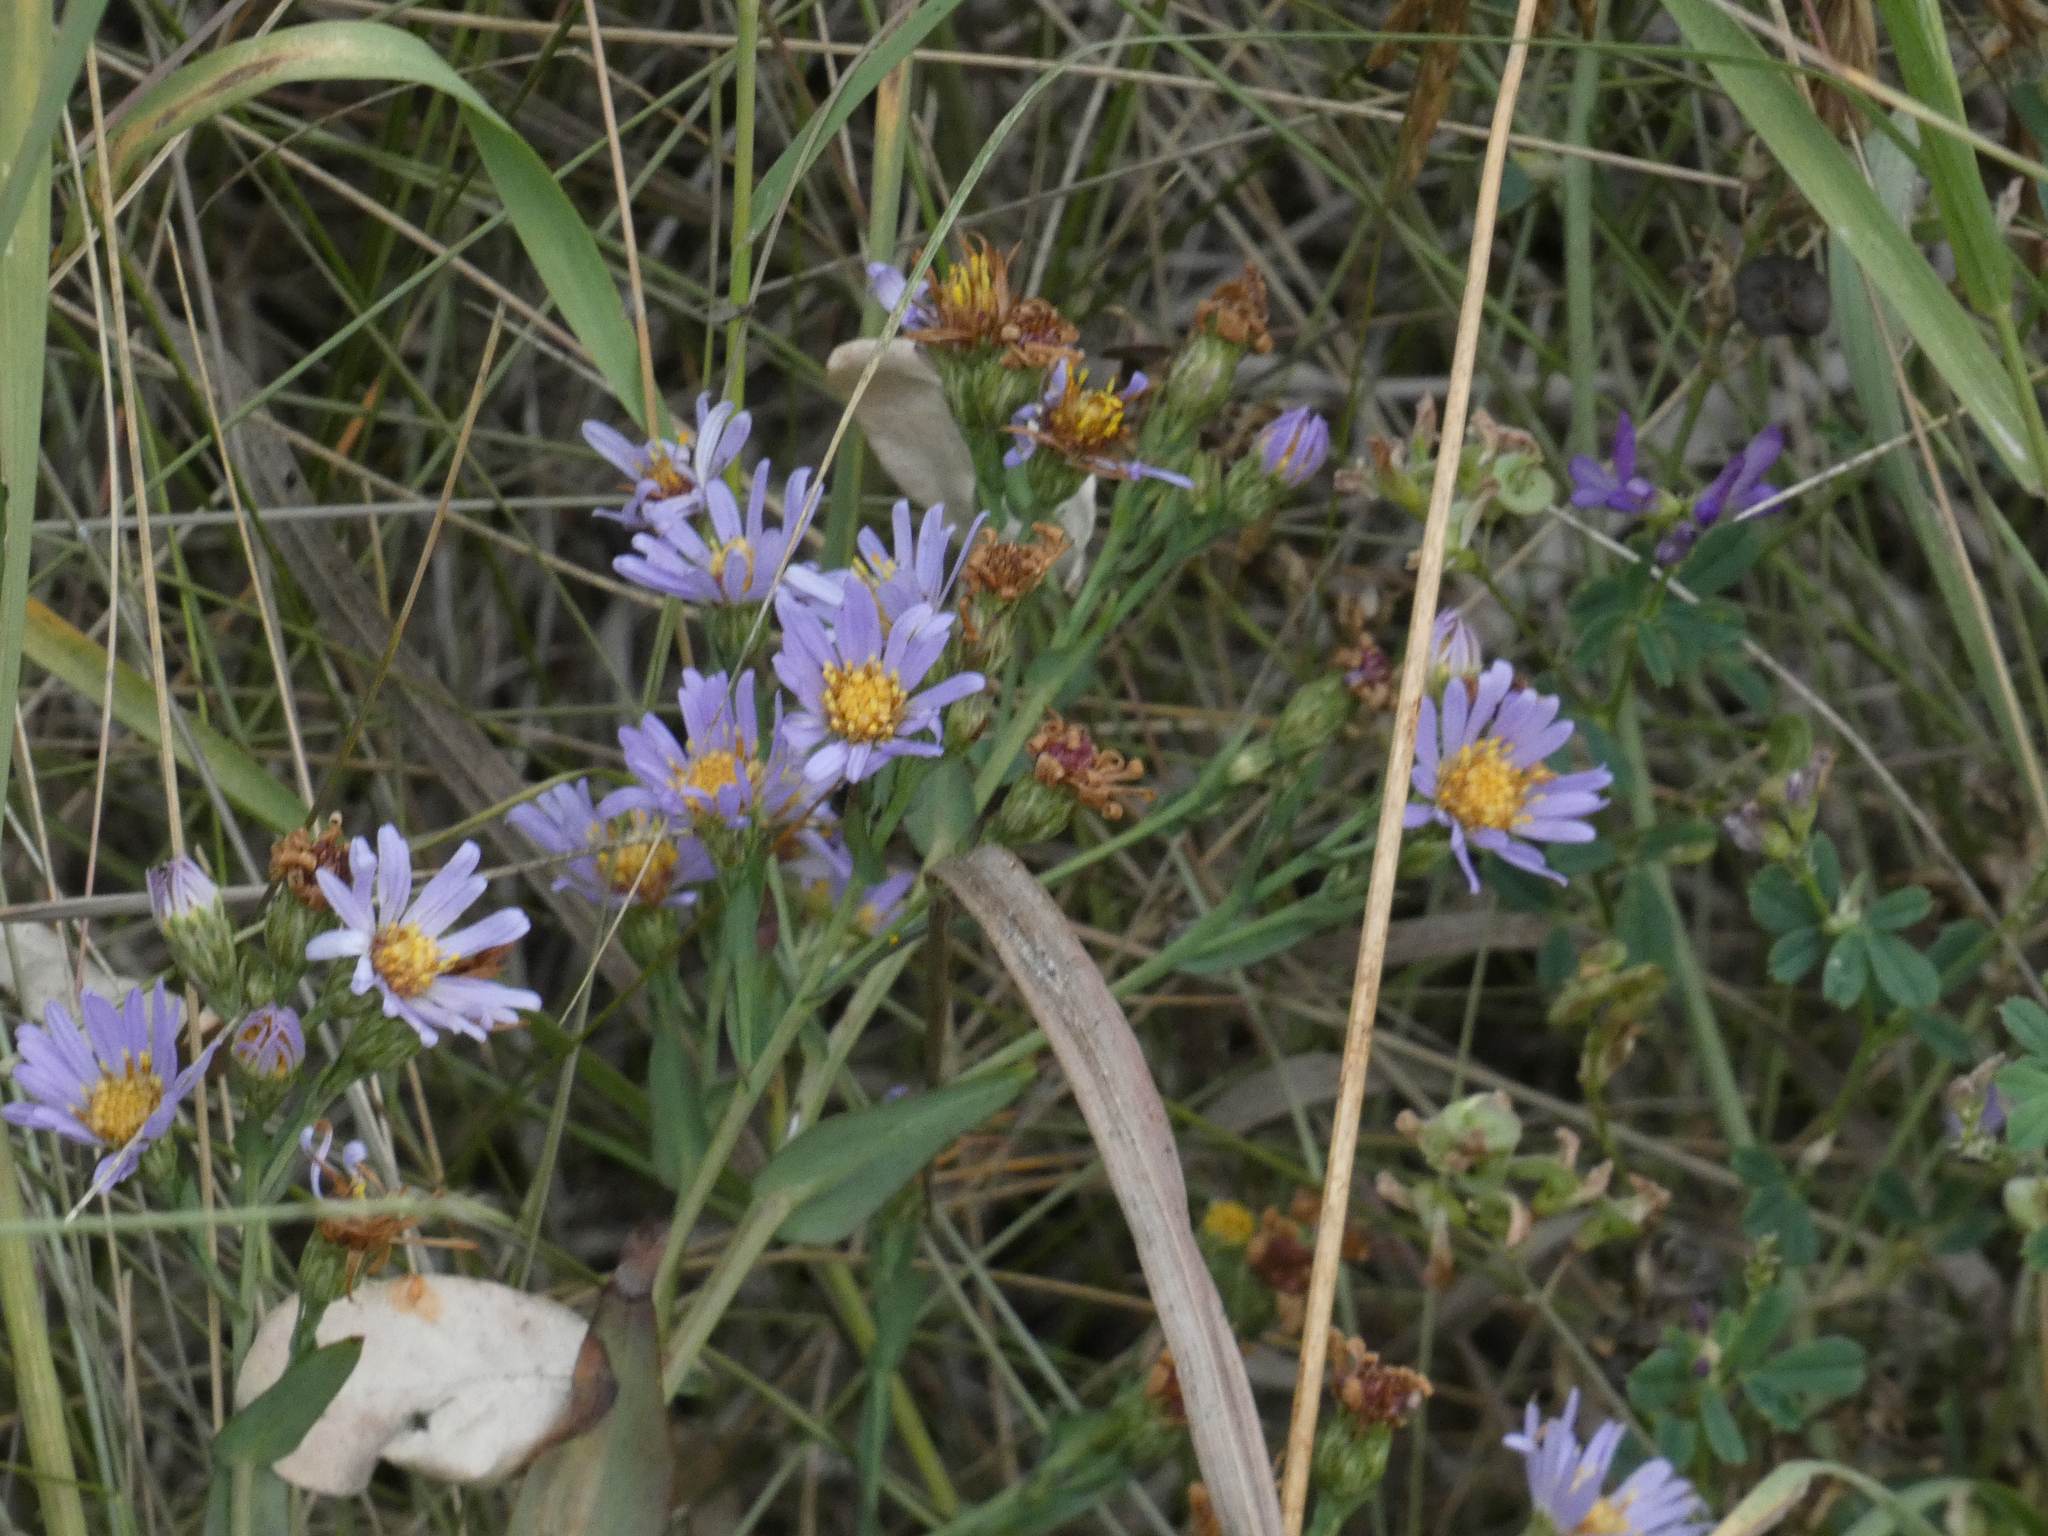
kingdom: Plantae
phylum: Tracheophyta
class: Magnoliopsida
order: Asterales
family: Asteraceae
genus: Symphyotrichum
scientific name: Symphyotrichum laeve
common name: Glaucous aster
